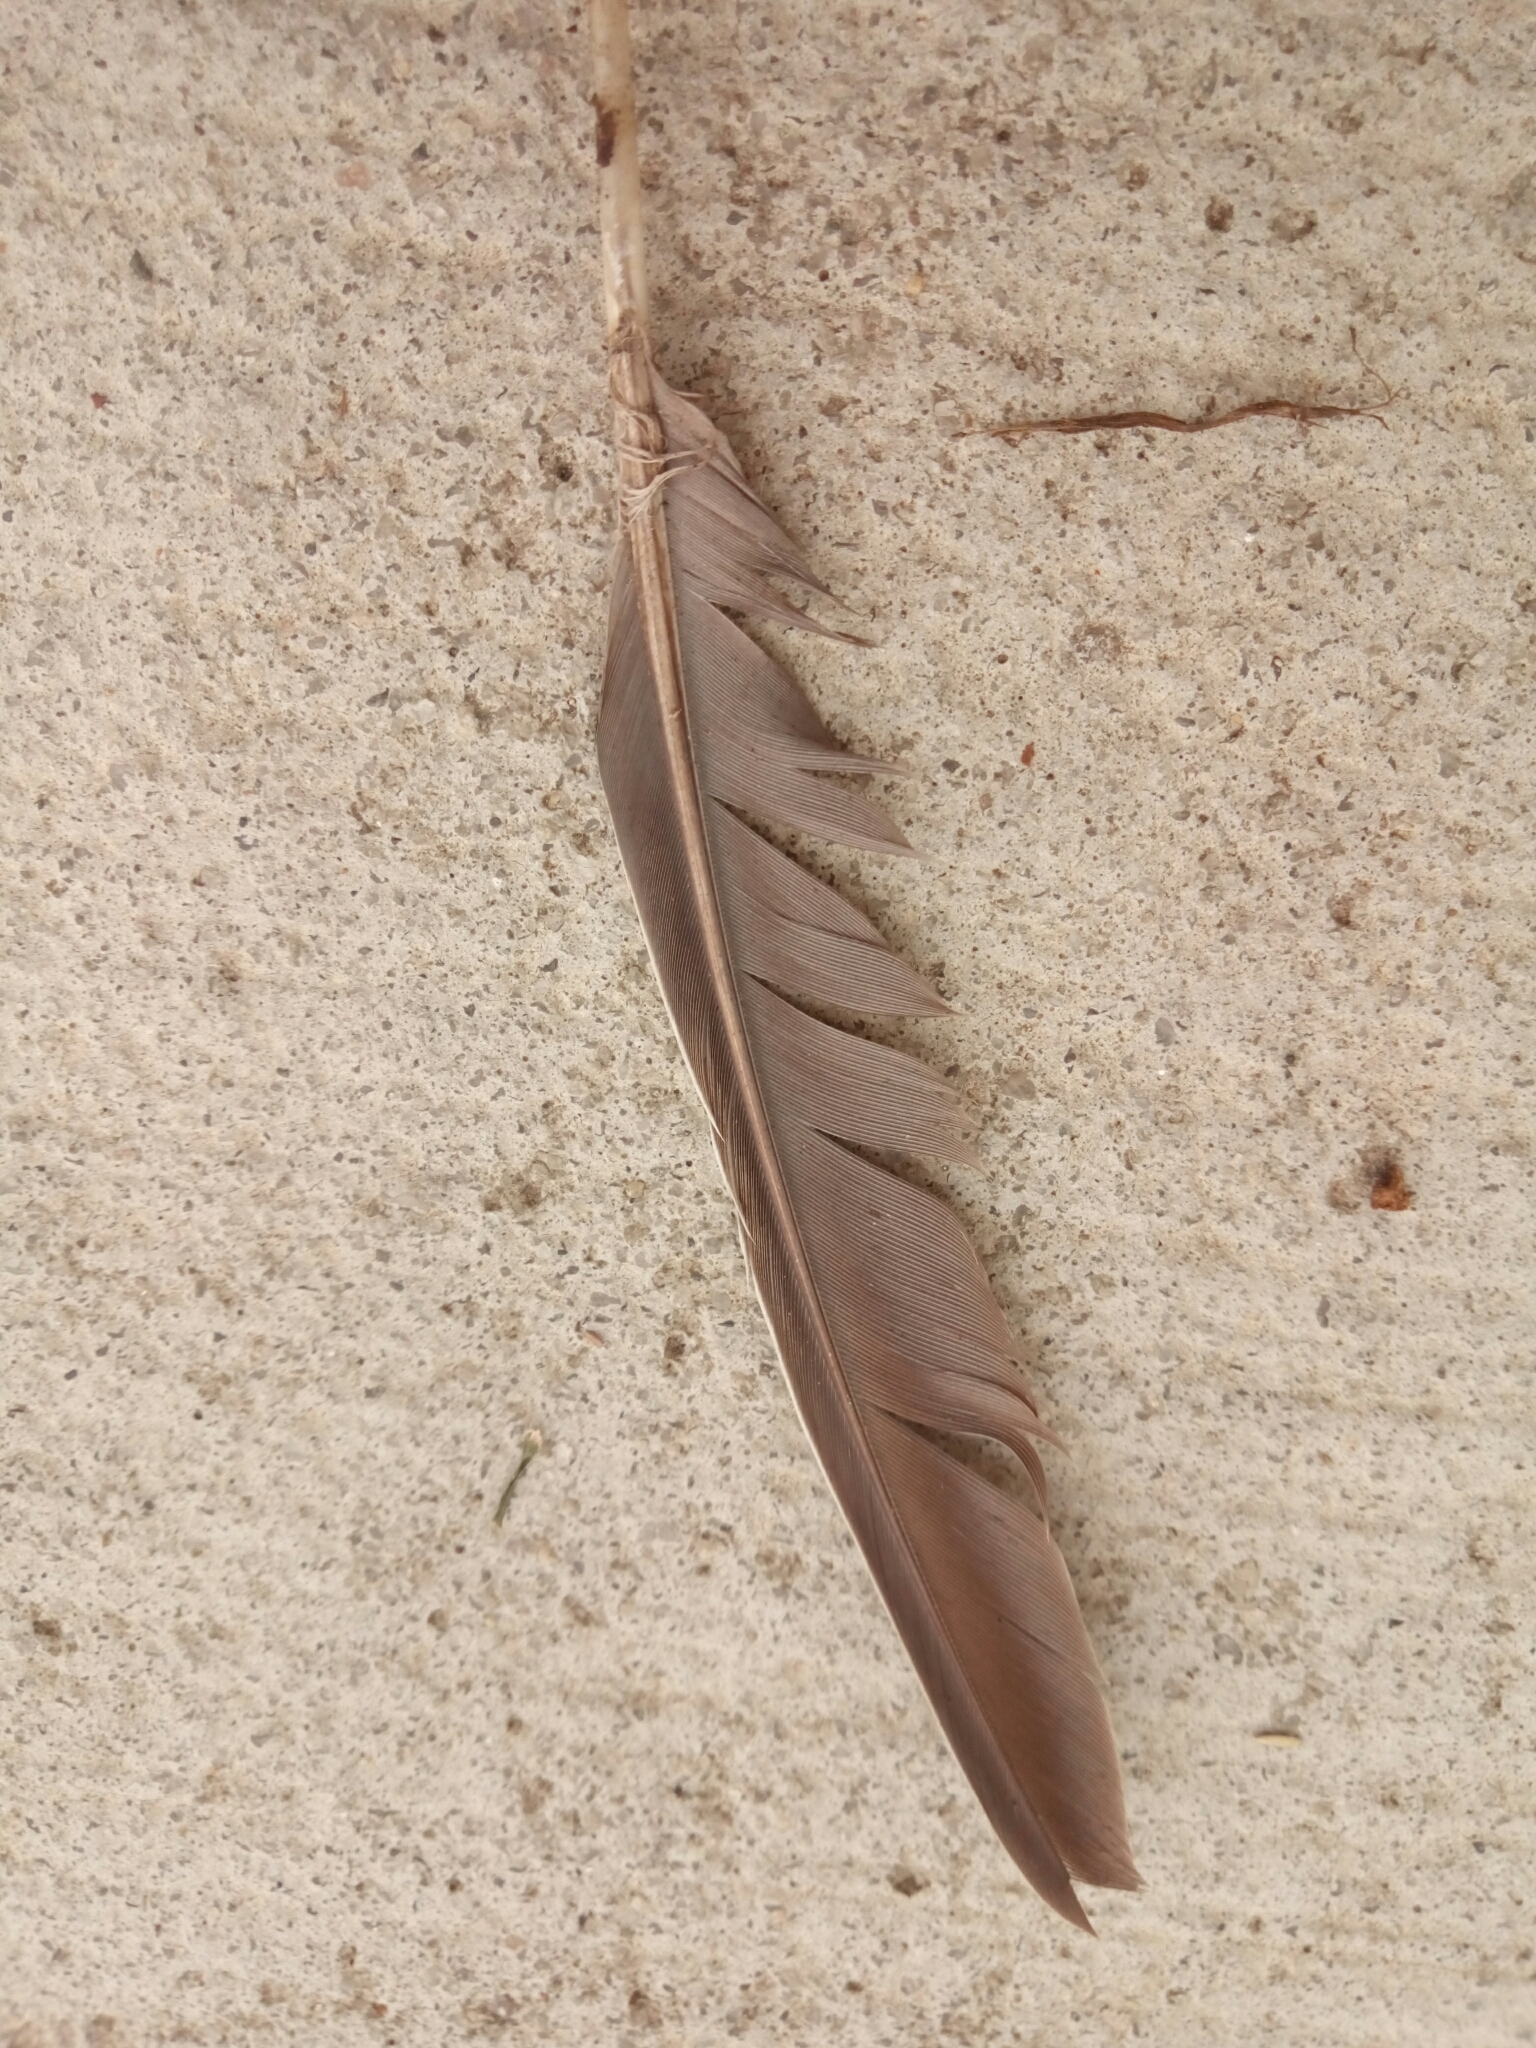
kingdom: Animalia
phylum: Chordata
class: Aves
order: Columbiformes
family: Columbidae
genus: Zenaida
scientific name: Zenaida macroura
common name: Mourning dove
